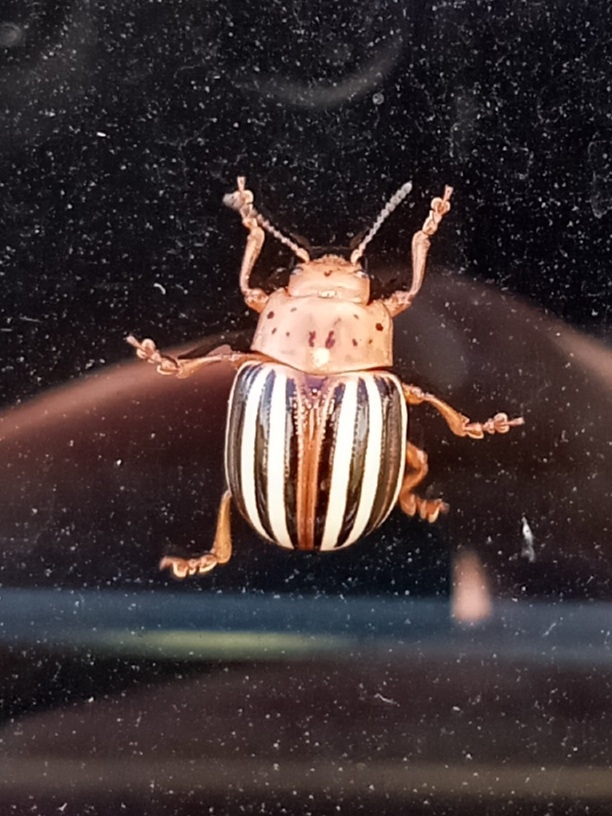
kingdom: Animalia
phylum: Arthropoda
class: Insecta
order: Coleoptera
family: Chrysomelidae
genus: Leptinotarsa
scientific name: Leptinotarsa juncta
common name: False potato beetle
